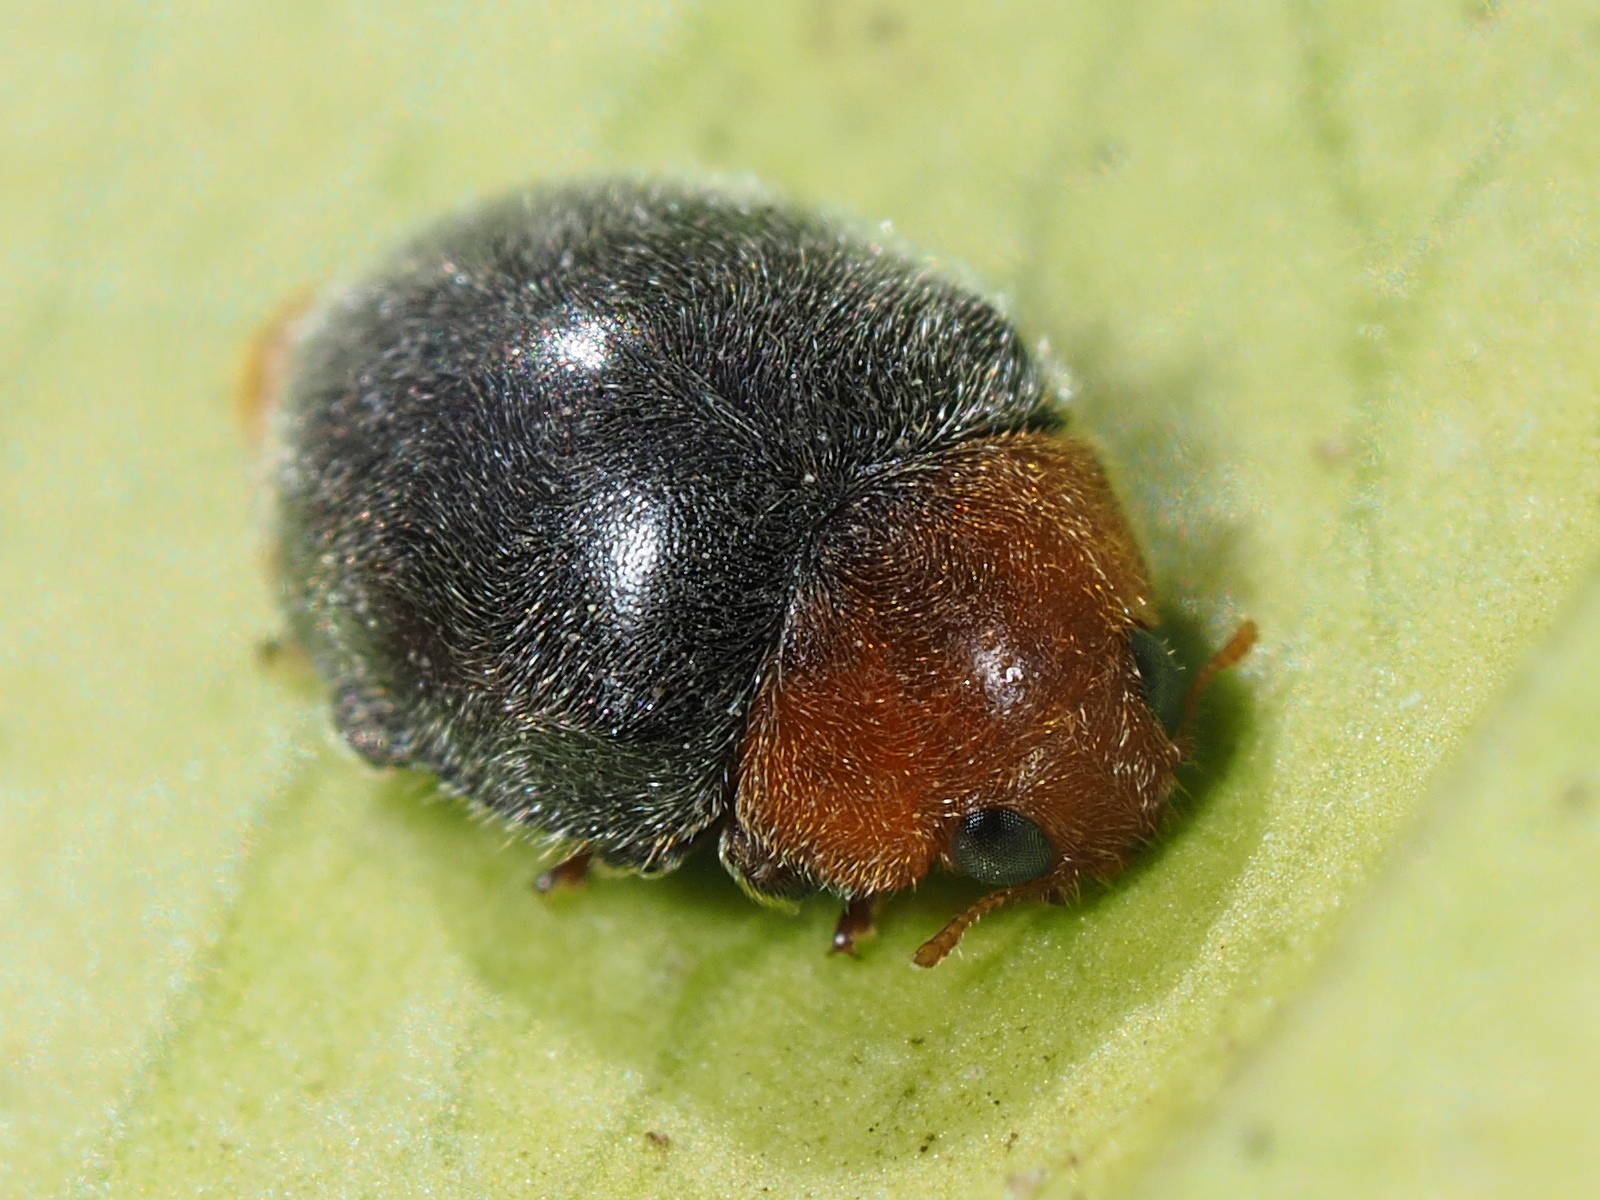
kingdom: Animalia
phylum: Arthropoda
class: Insecta
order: Coleoptera
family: Coccinellidae
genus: Cryptolaemus
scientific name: Cryptolaemus montrouzieri
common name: Mealybug destroyer
